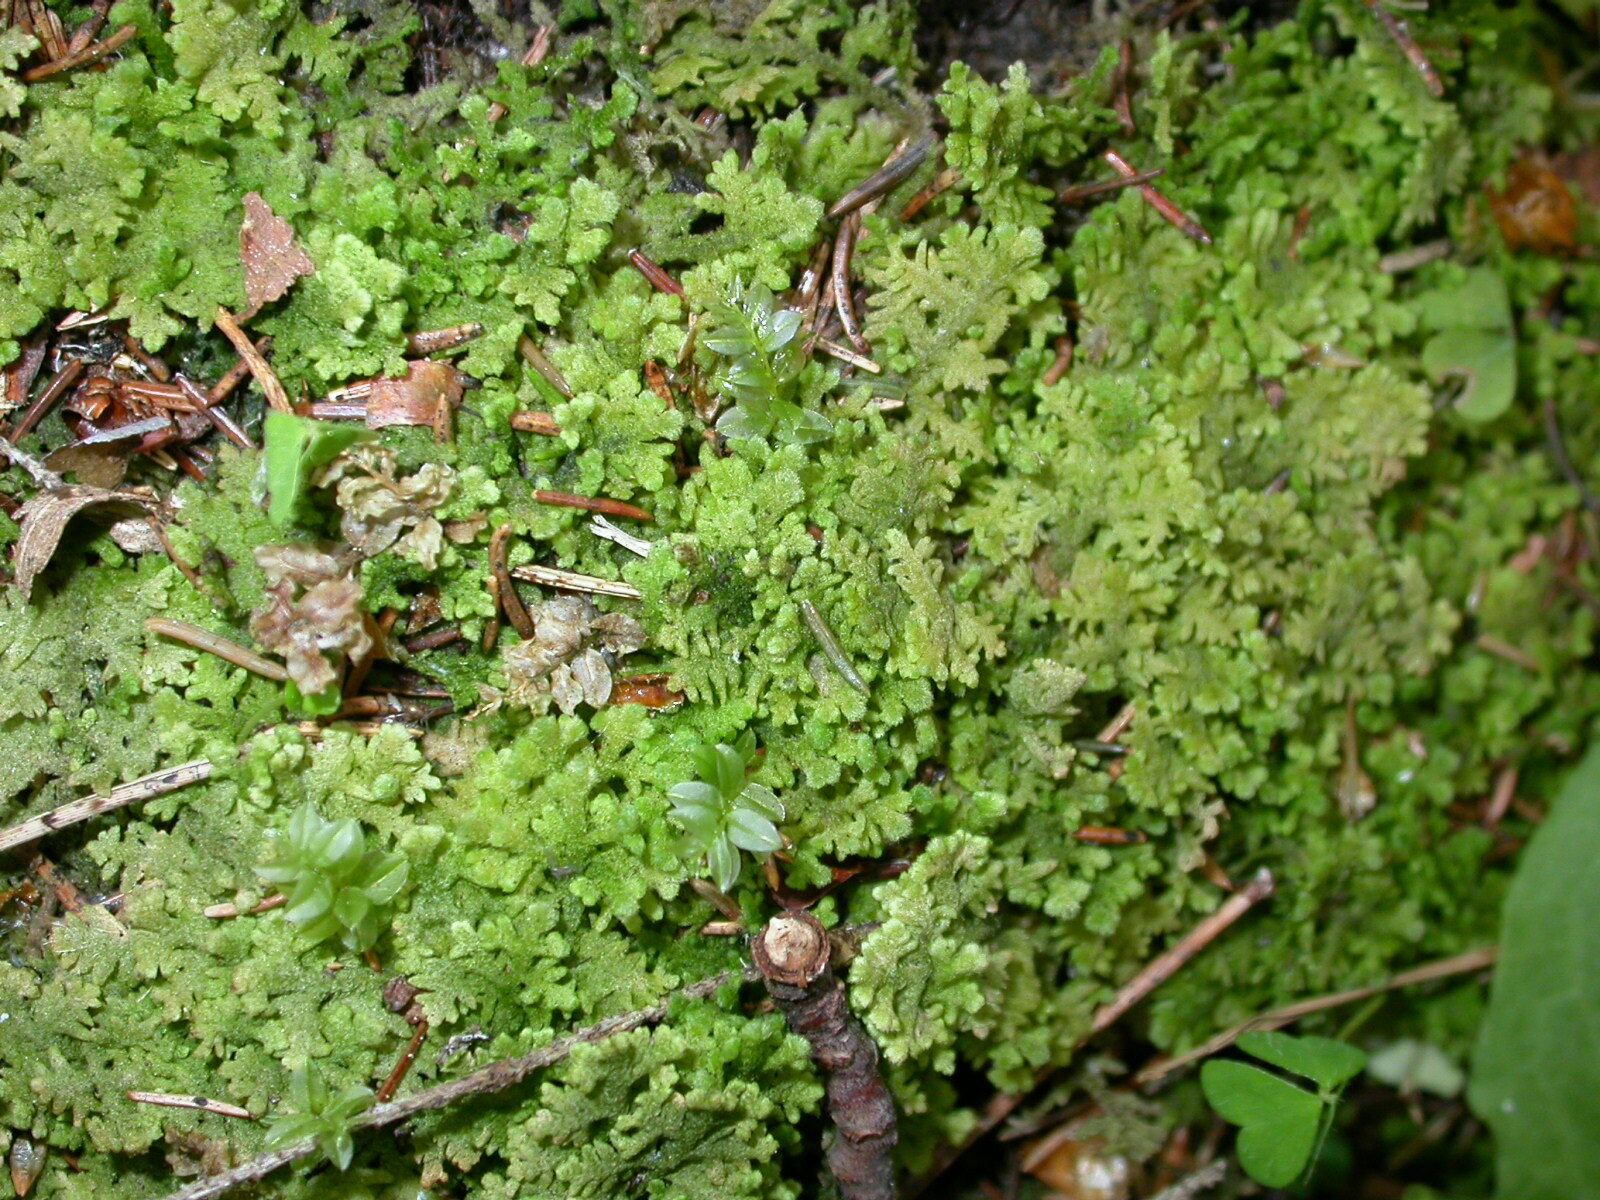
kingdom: Plantae
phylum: Marchantiophyta
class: Jungermanniopsida
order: Jungermanniales
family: Trichocoleaceae
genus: Trichocolea
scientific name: Trichocolea tomentella
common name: Woolly liverwort
